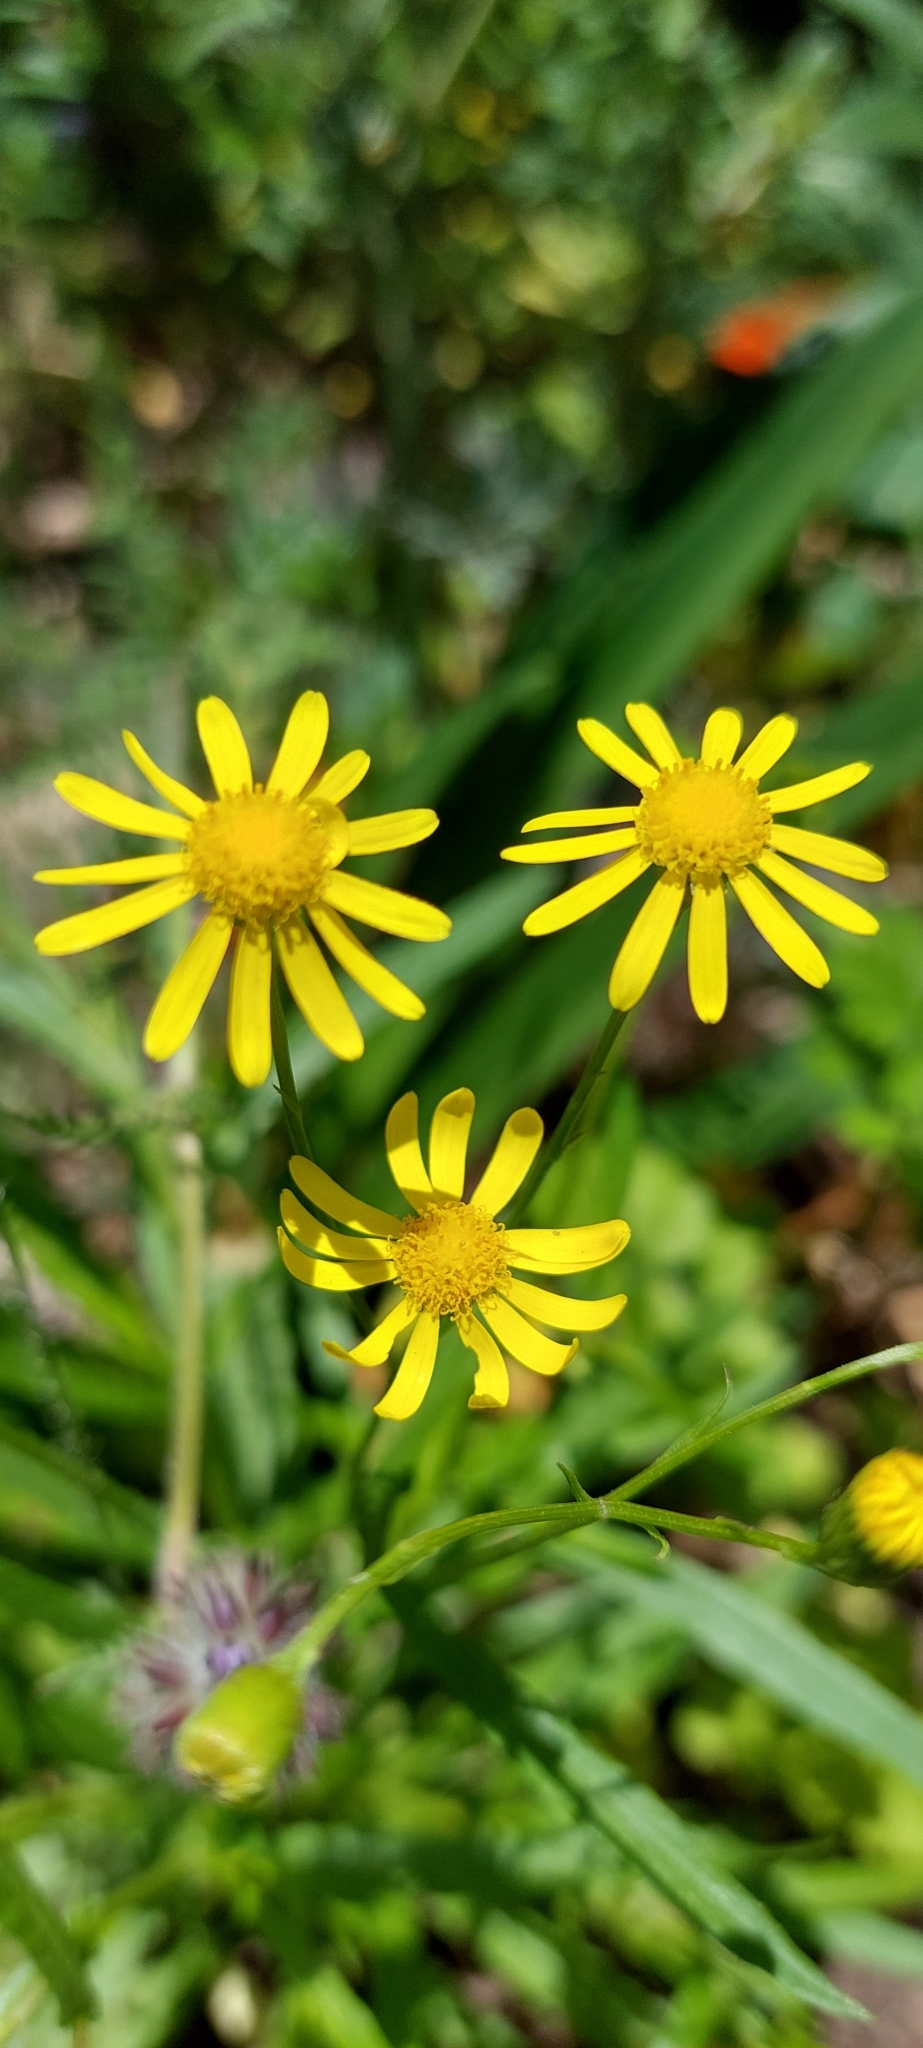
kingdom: Plantae
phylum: Tracheophyta
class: Magnoliopsida
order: Asterales
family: Asteraceae
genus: Senecio
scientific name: Senecio madagascariensis
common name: Madagascar ragwort
